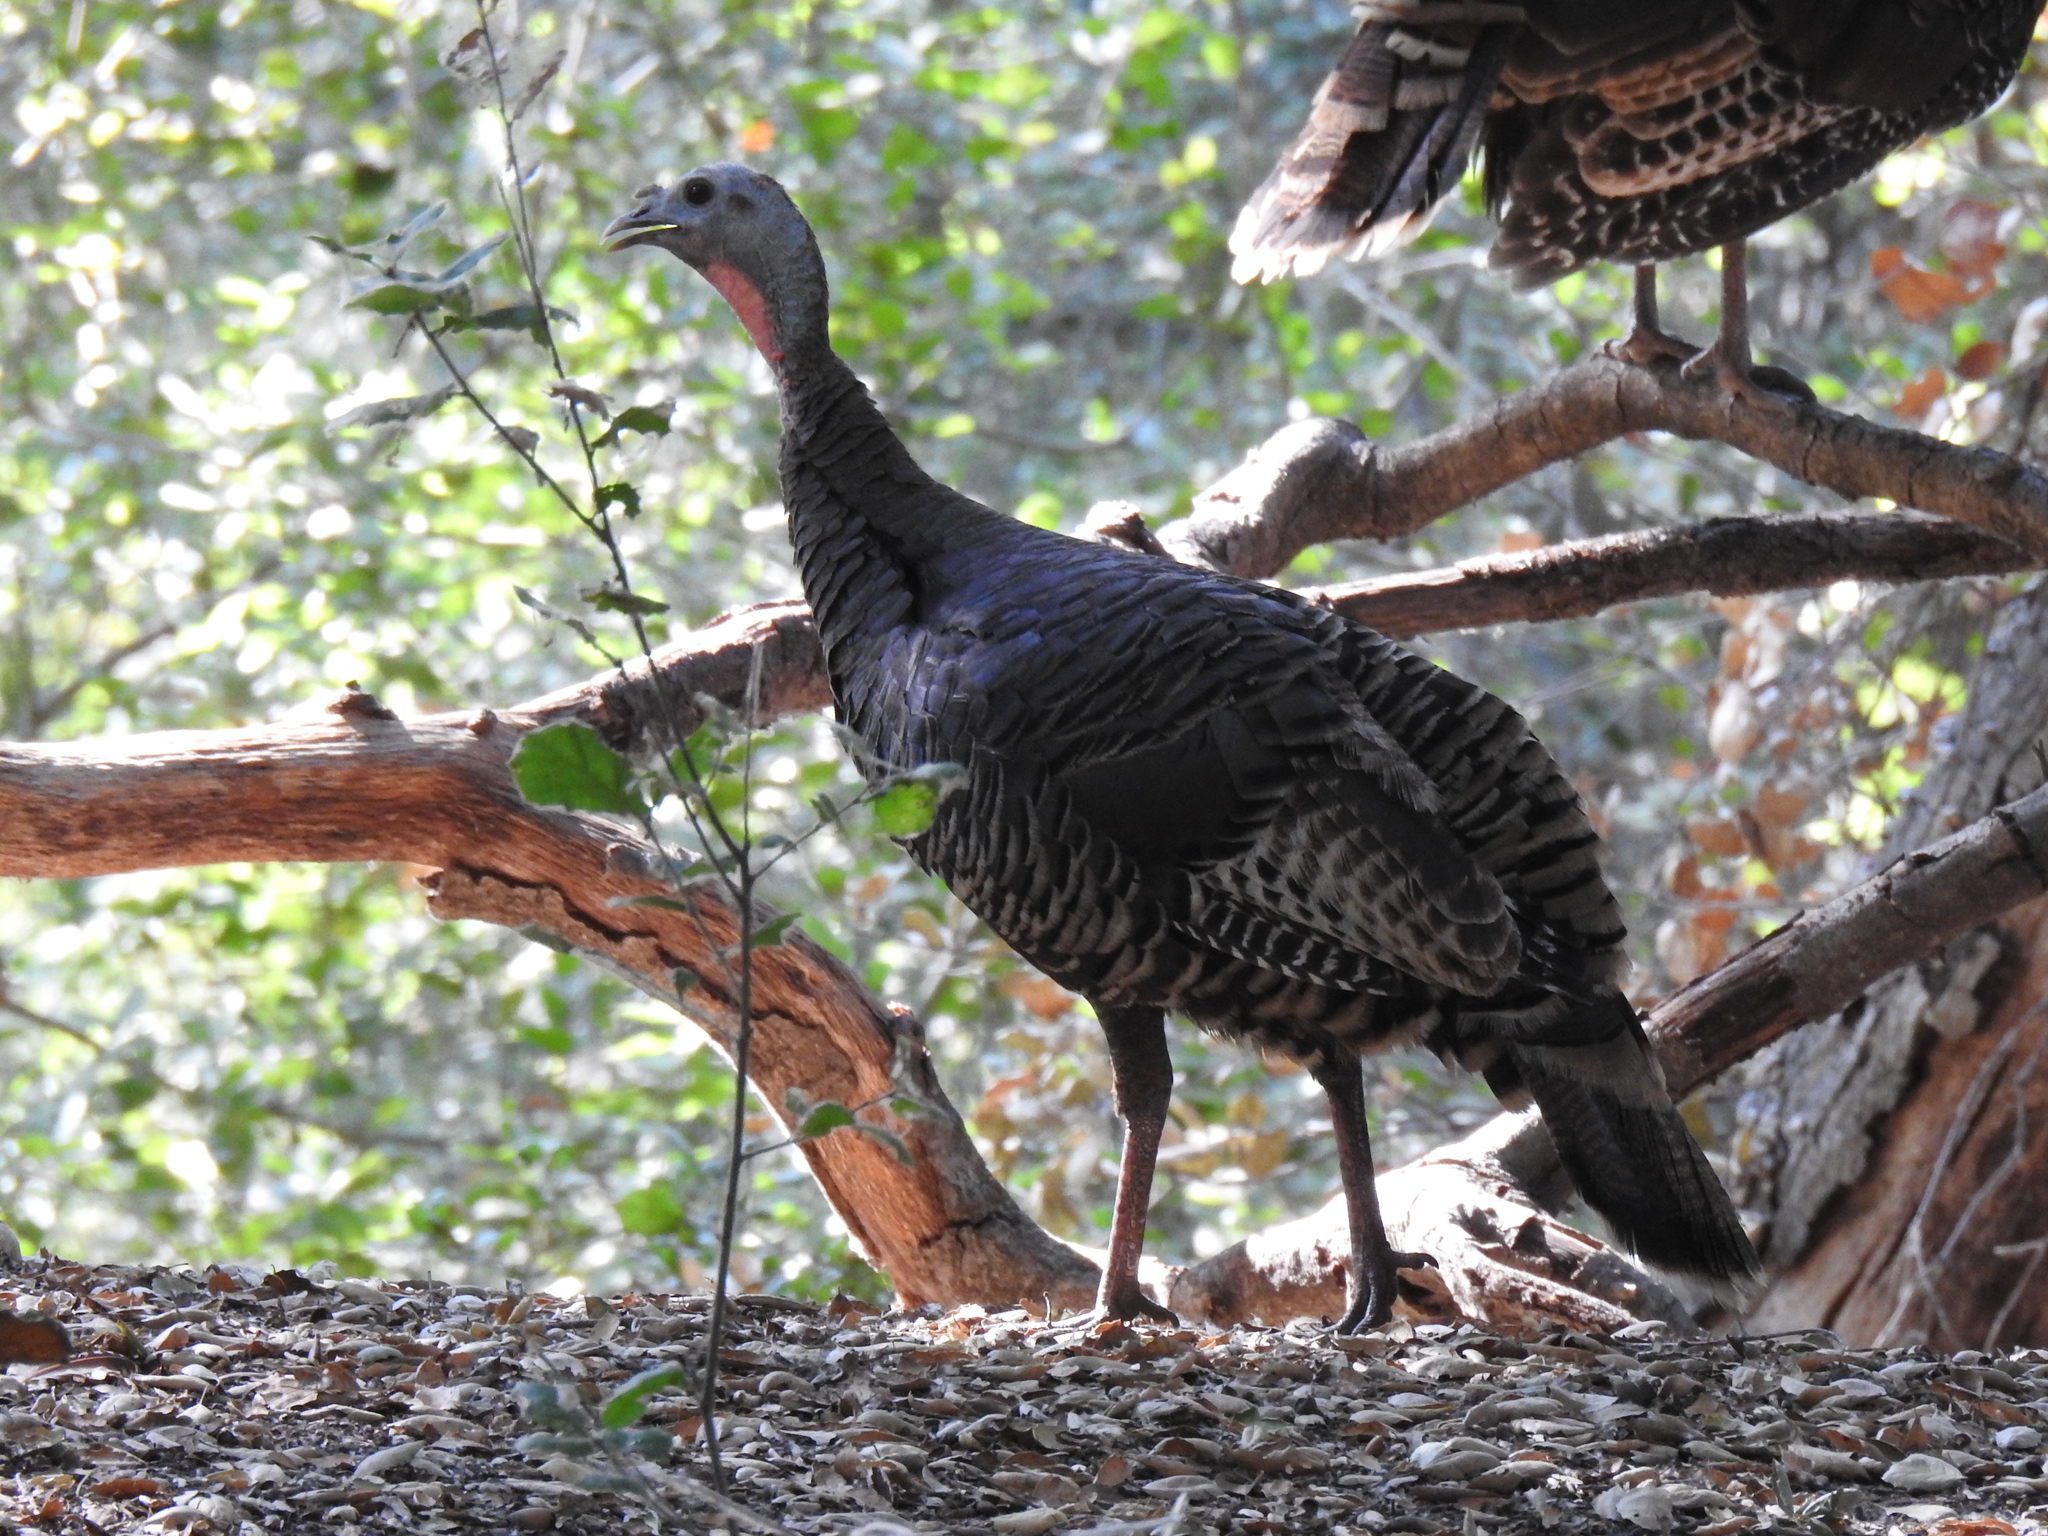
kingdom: Animalia
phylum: Chordata
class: Aves
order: Galliformes
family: Phasianidae
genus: Meleagris
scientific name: Meleagris gallopavo
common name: Wild turkey
